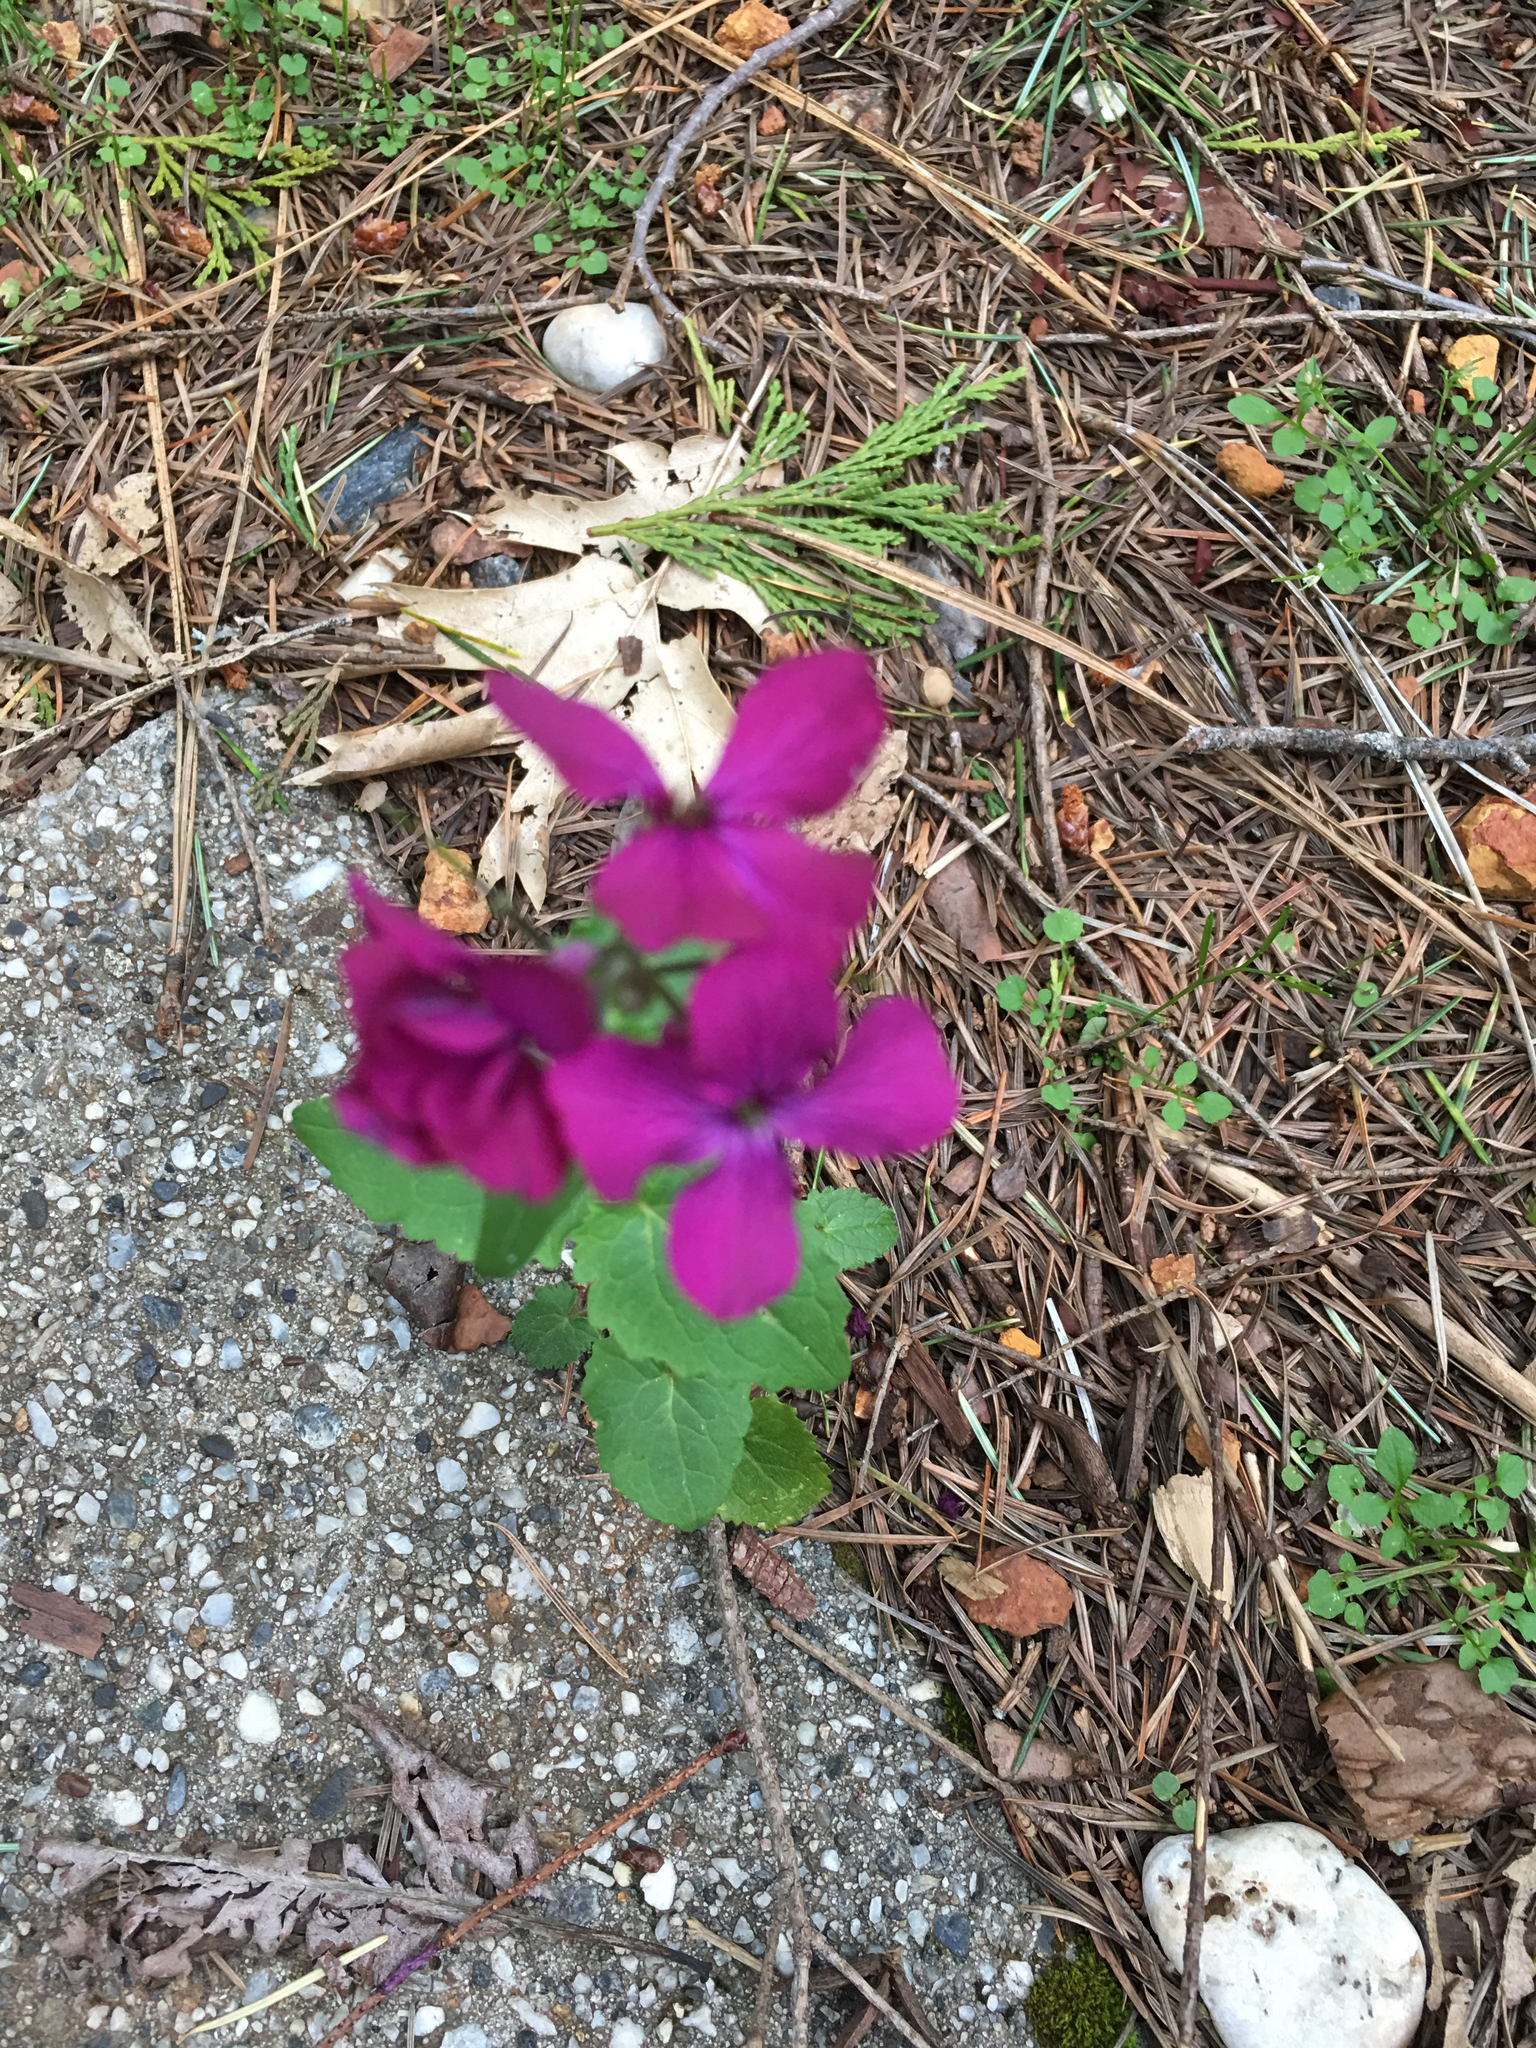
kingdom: Plantae
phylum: Tracheophyta
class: Magnoliopsida
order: Brassicales
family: Brassicaceae
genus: Lunaria
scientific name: Lunaria annua
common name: Honesty
